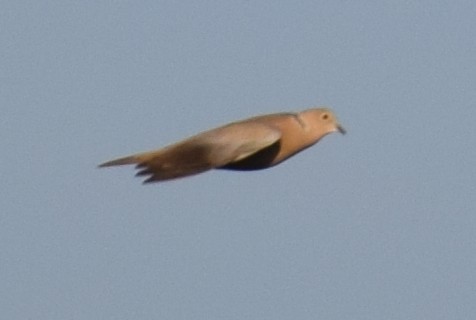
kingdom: Animalia
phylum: Chordata
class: Aves
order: Columbiformes
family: Columbidae
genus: Streptopelia
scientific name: Streptopelia decaocto
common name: Eurasian collared dove
